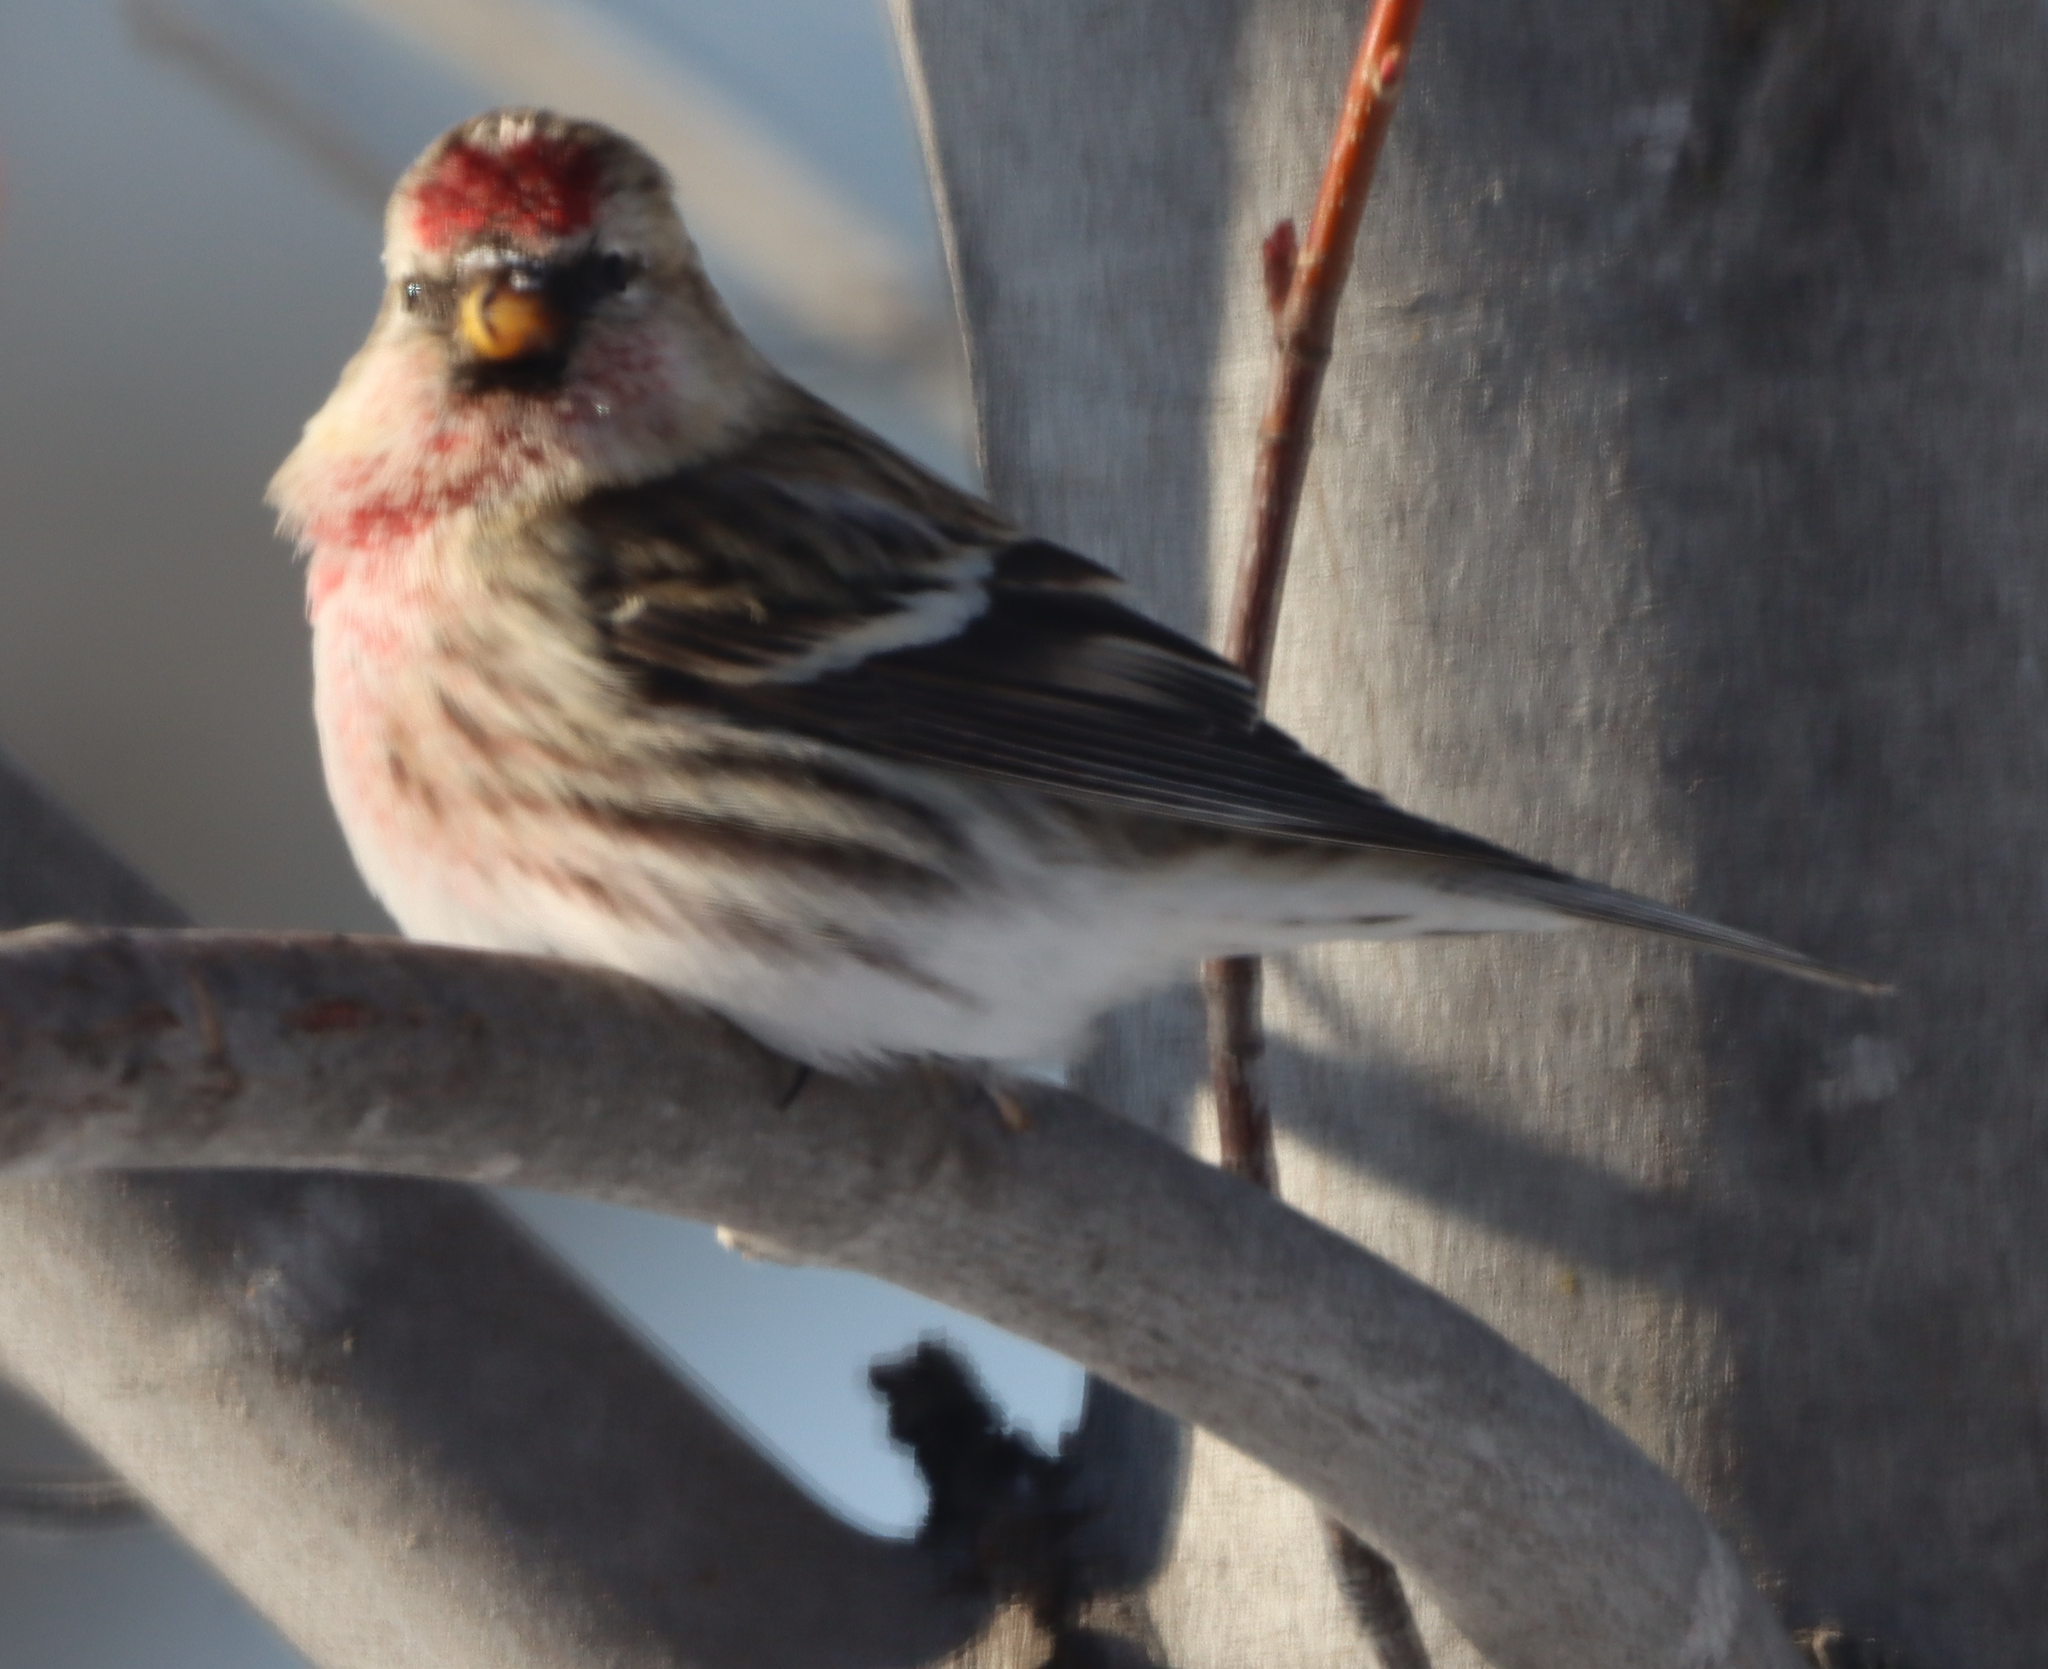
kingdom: Animalia
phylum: Chordata
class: Aves
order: Passeriformes
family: Fringillidae
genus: Acanthis
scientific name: Acanthis flammea
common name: Common redpoll
